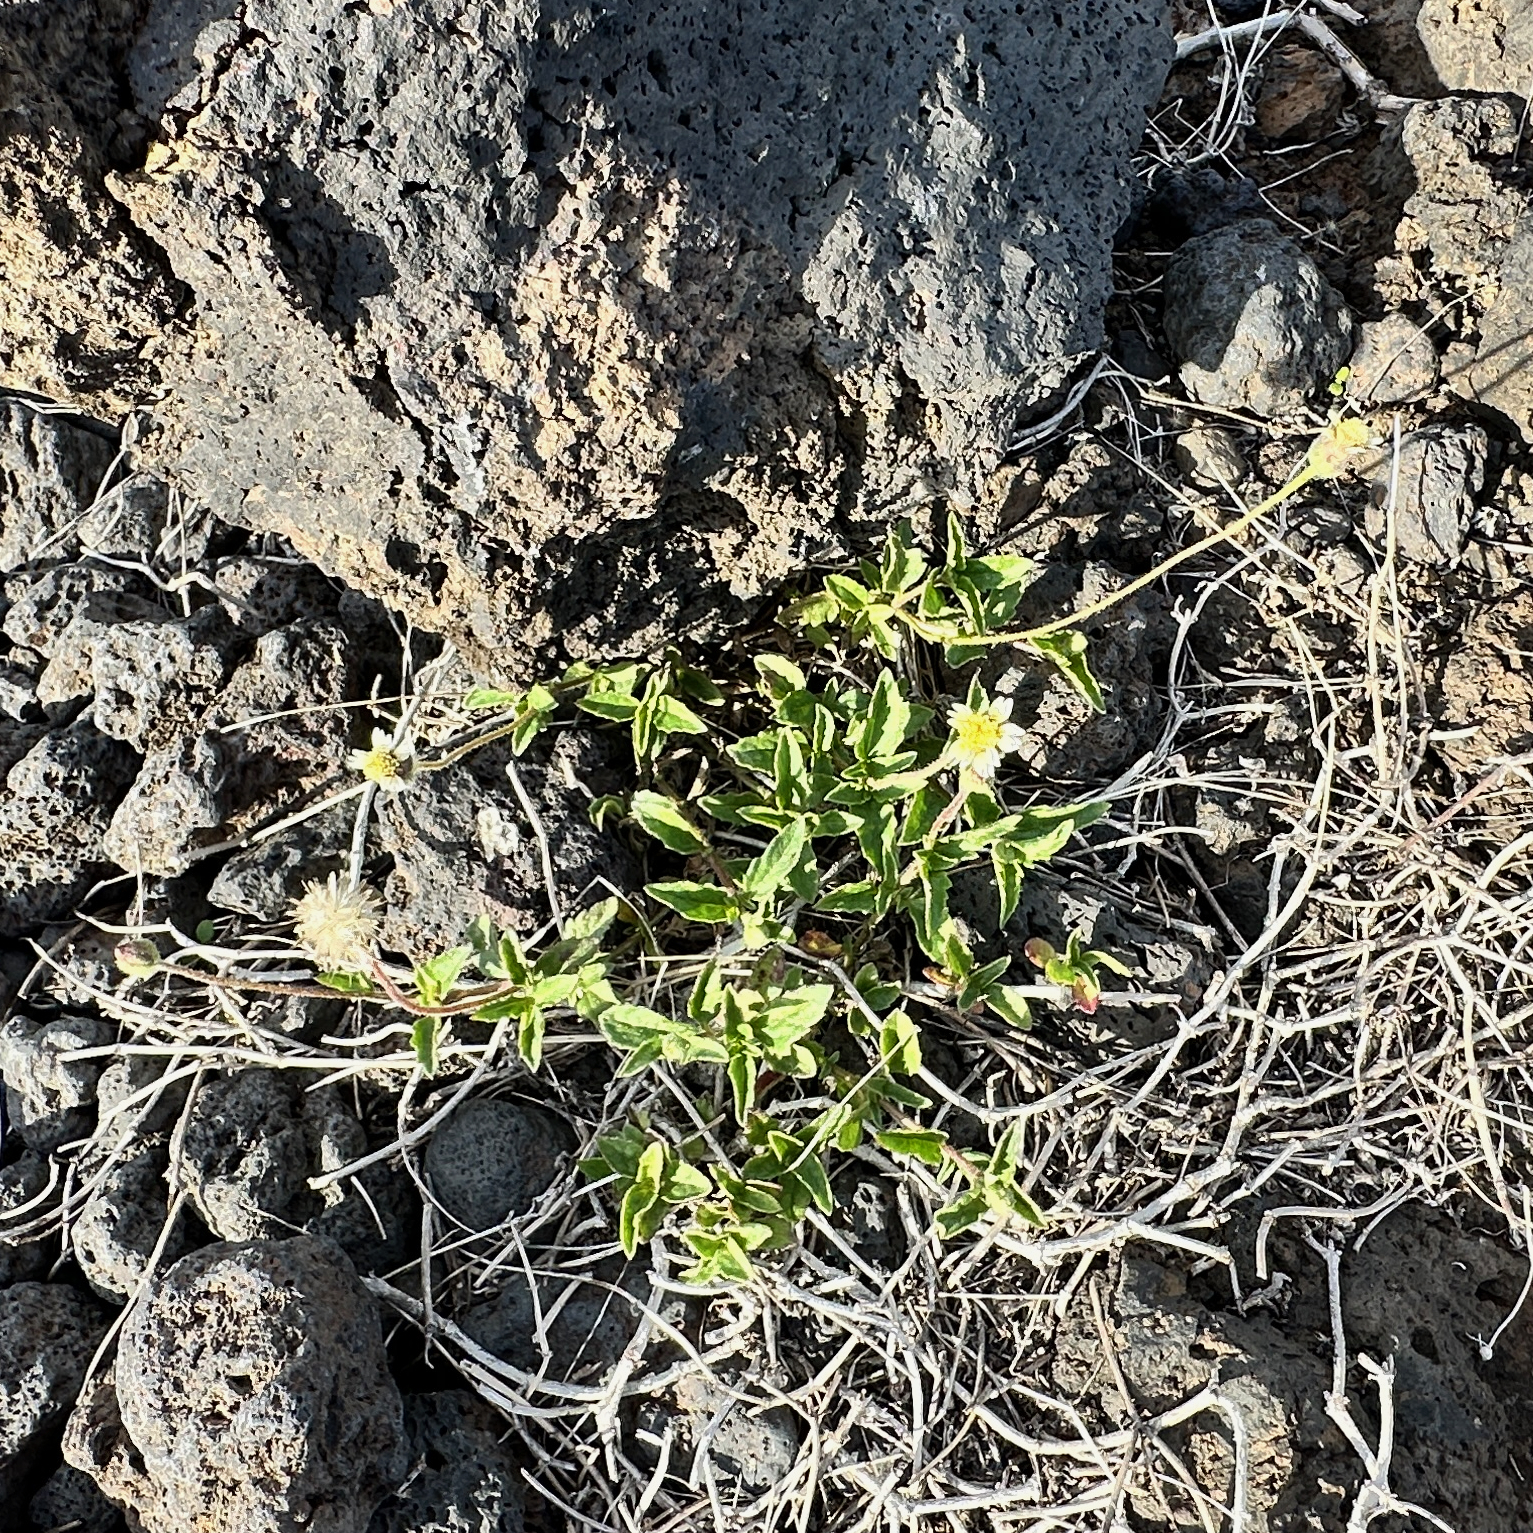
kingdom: Plantae
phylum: Tracheophyta
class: Magnoliopsida
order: Asterales
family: Asteraceae
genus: Tridax
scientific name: Tridax procumbens
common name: Coatbuttons
